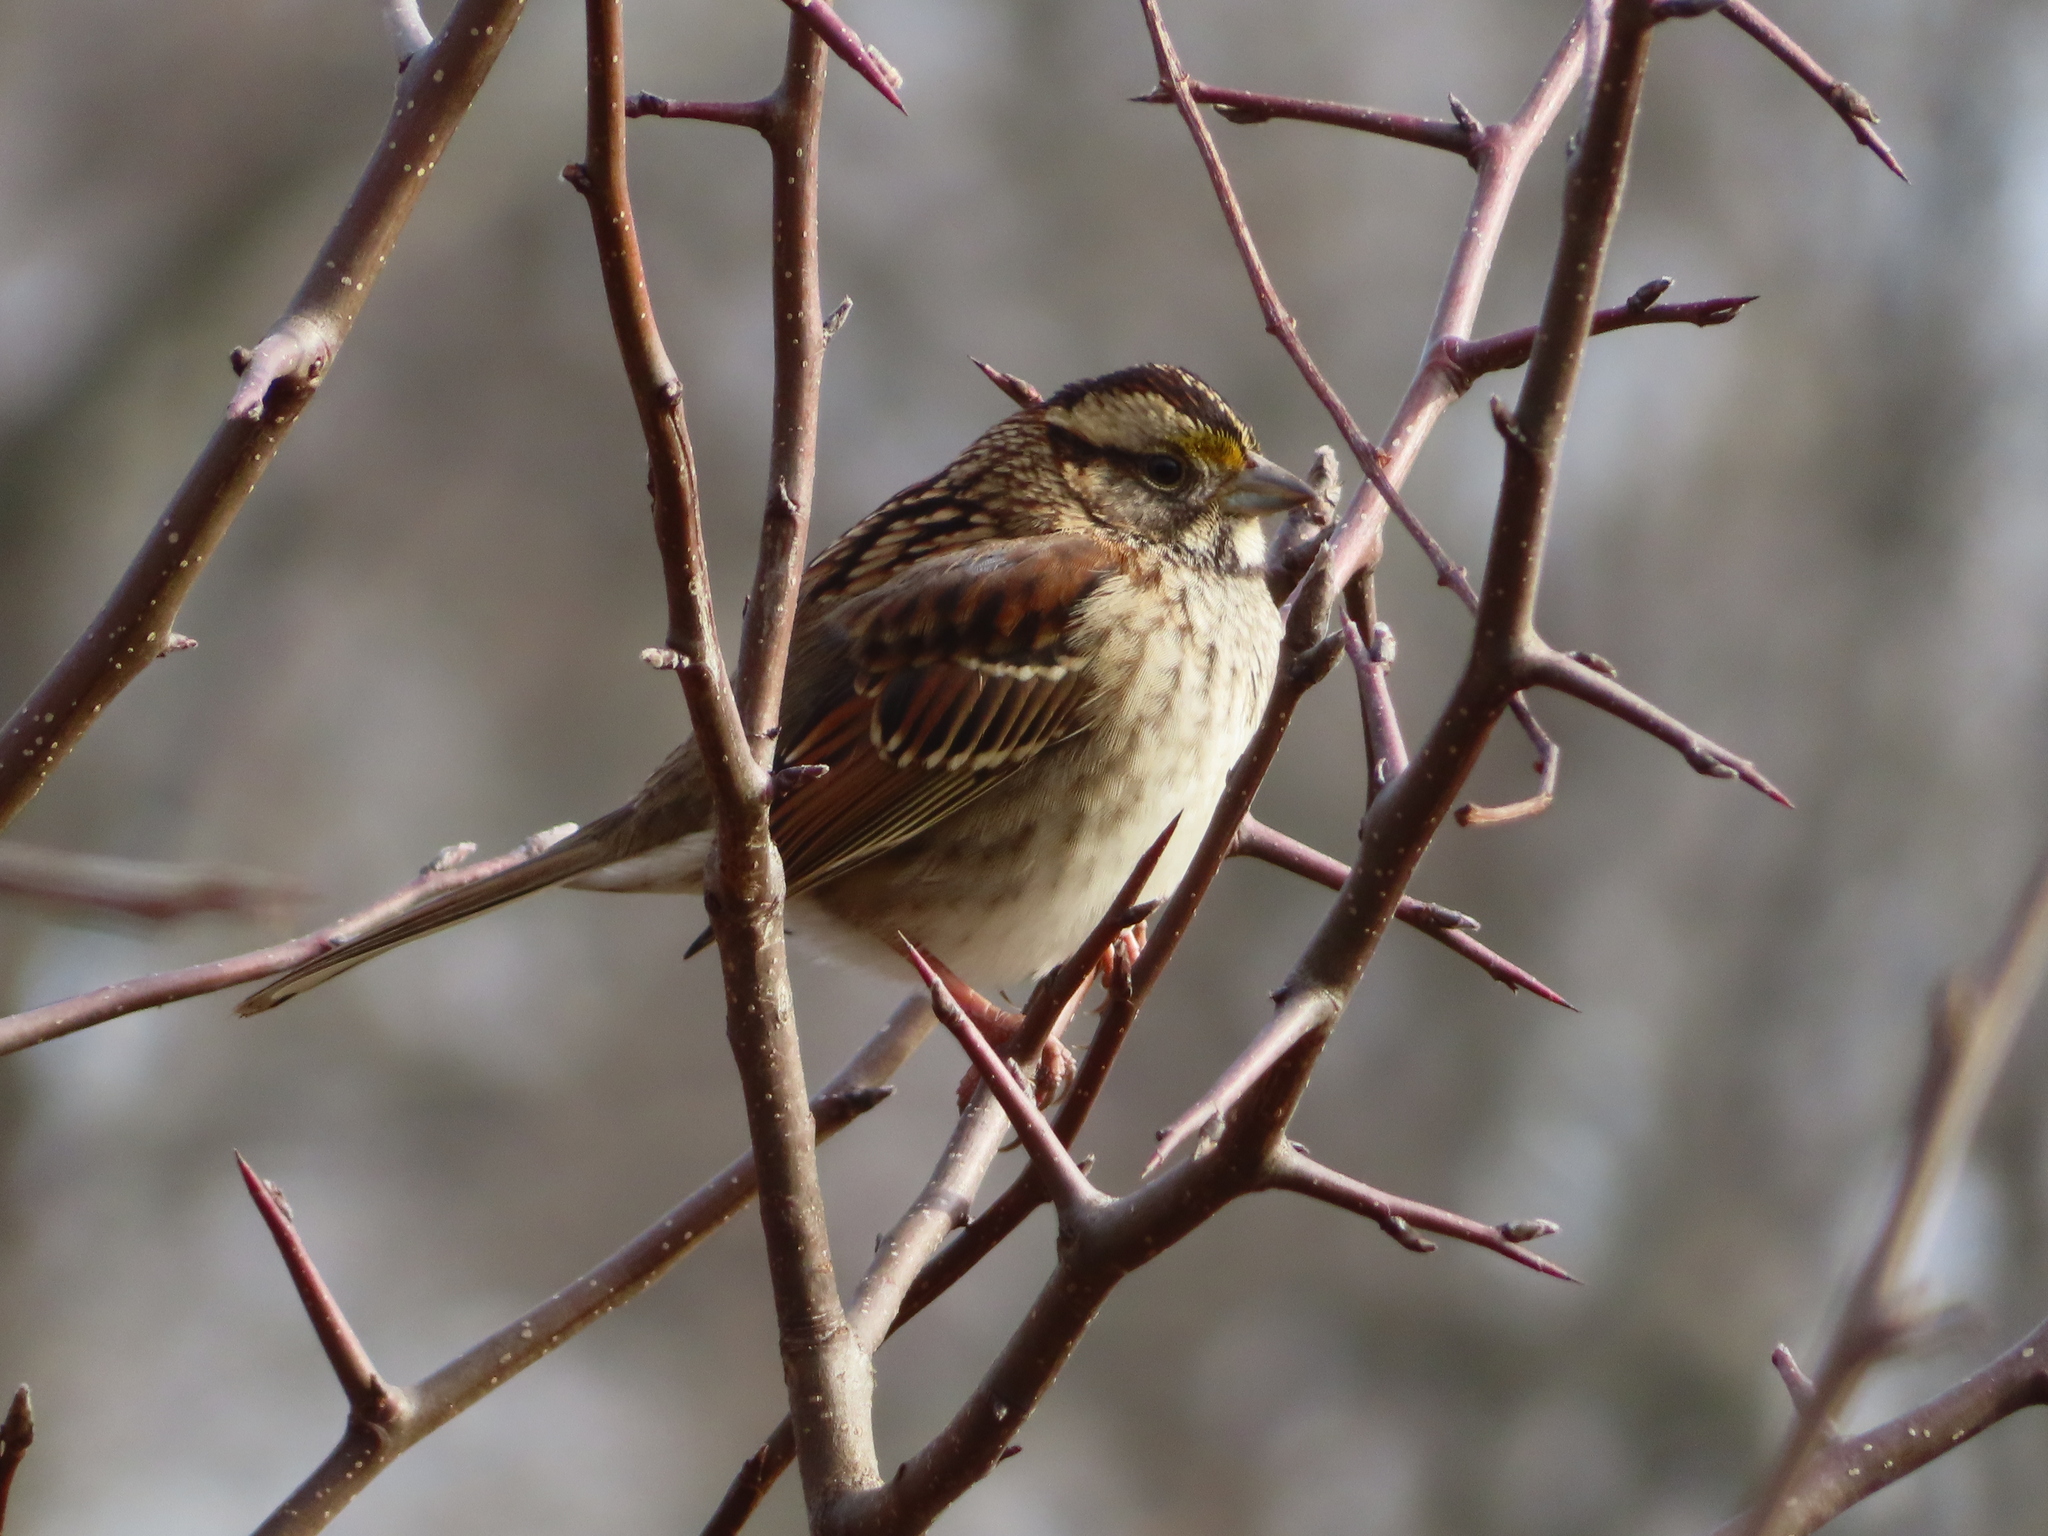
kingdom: Animalia
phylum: Chordata
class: Aves
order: Passeriformes
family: Passerellidae
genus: Zonotrichia
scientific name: Zonotrichia albicollis
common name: White-throated sparrow
